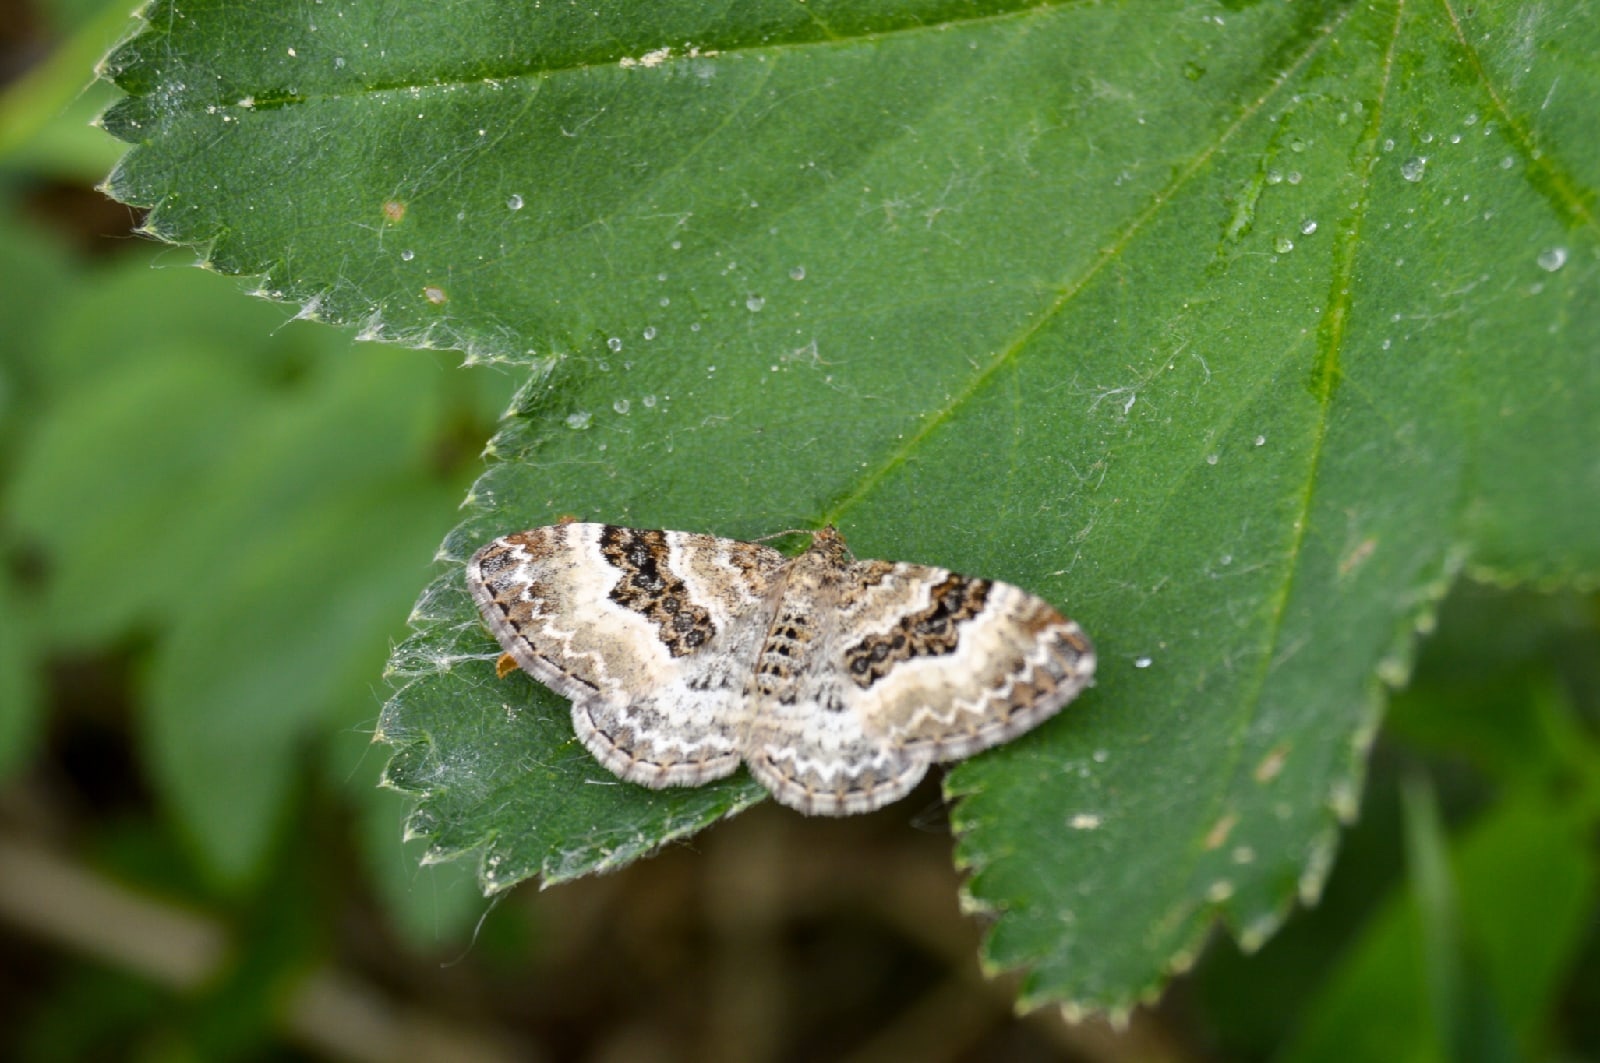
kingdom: Animalia
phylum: Arthropoda
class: Insecta
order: Lepidoptera
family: Geometridae
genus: Epirrhoe
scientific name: Epirrhoe alternata
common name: Common carpet
